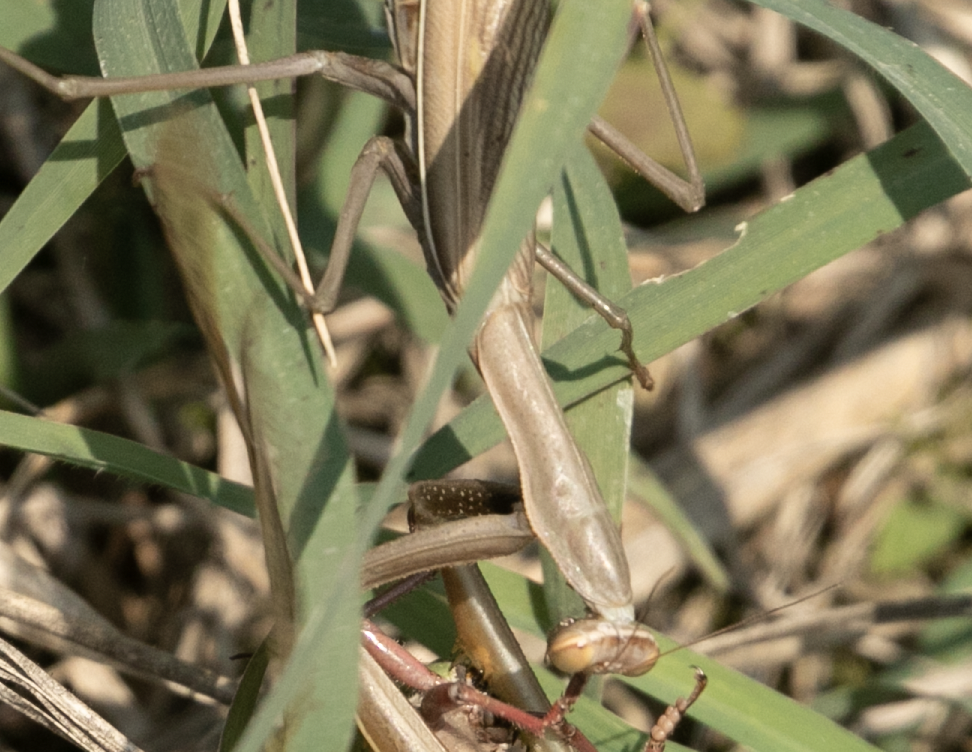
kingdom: Animalia
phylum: Arthropoda
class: Insecta
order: Mantodea
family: Mantidae
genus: Mantis
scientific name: Mantis religiosa
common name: Praying mantis
